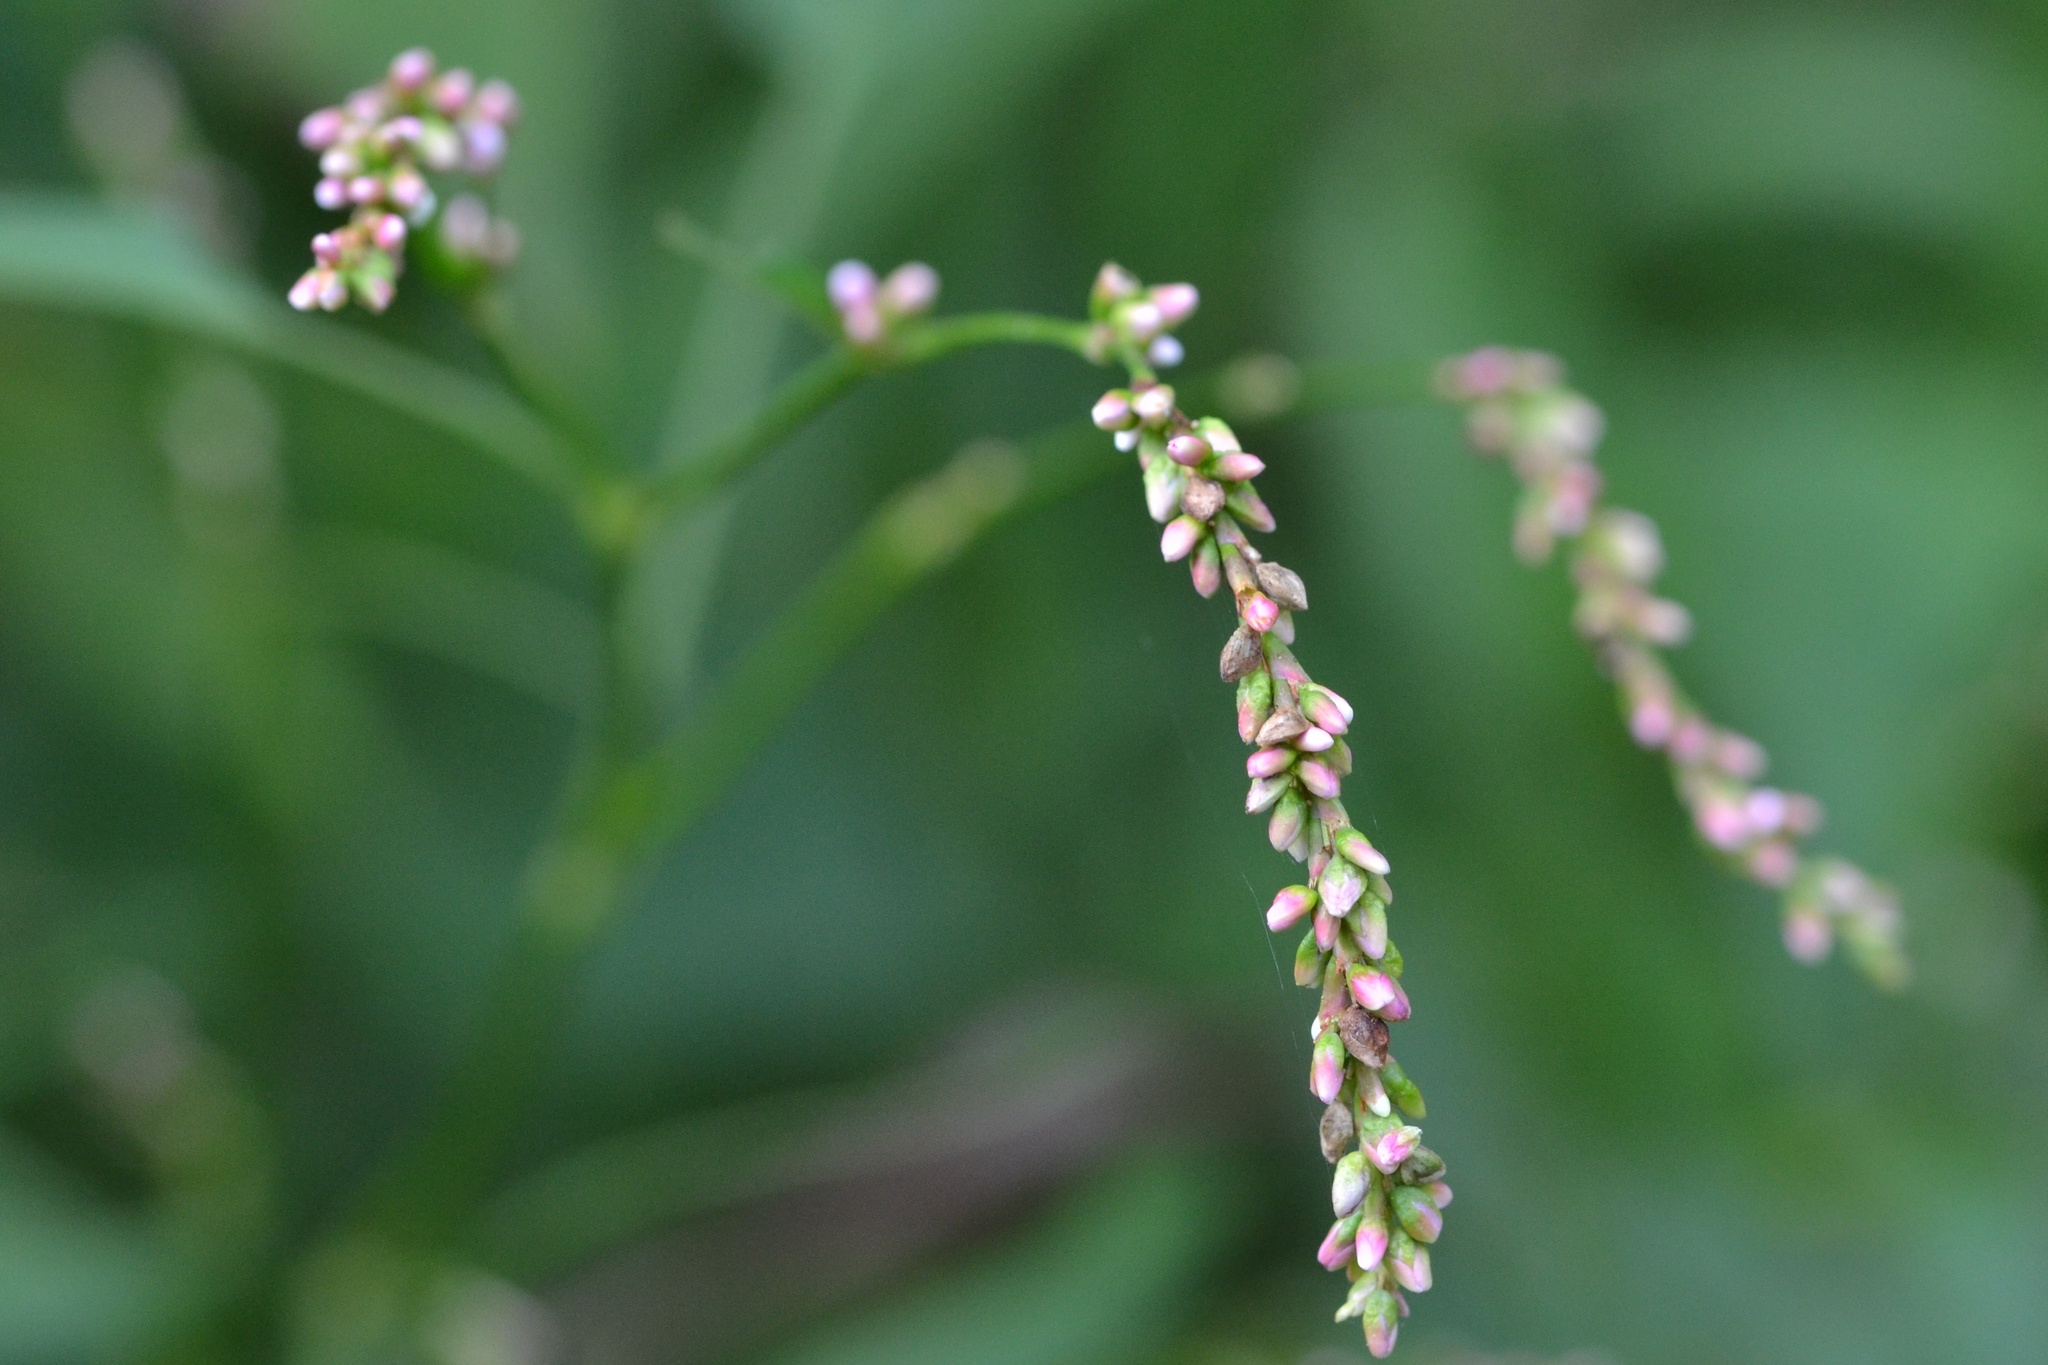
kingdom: Plantae
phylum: Tracheophyta
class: Magnoliopsida
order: Caryophyllales
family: Polygonaceae
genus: Persicaria
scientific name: Persicaria minor
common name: Small water-pepper
